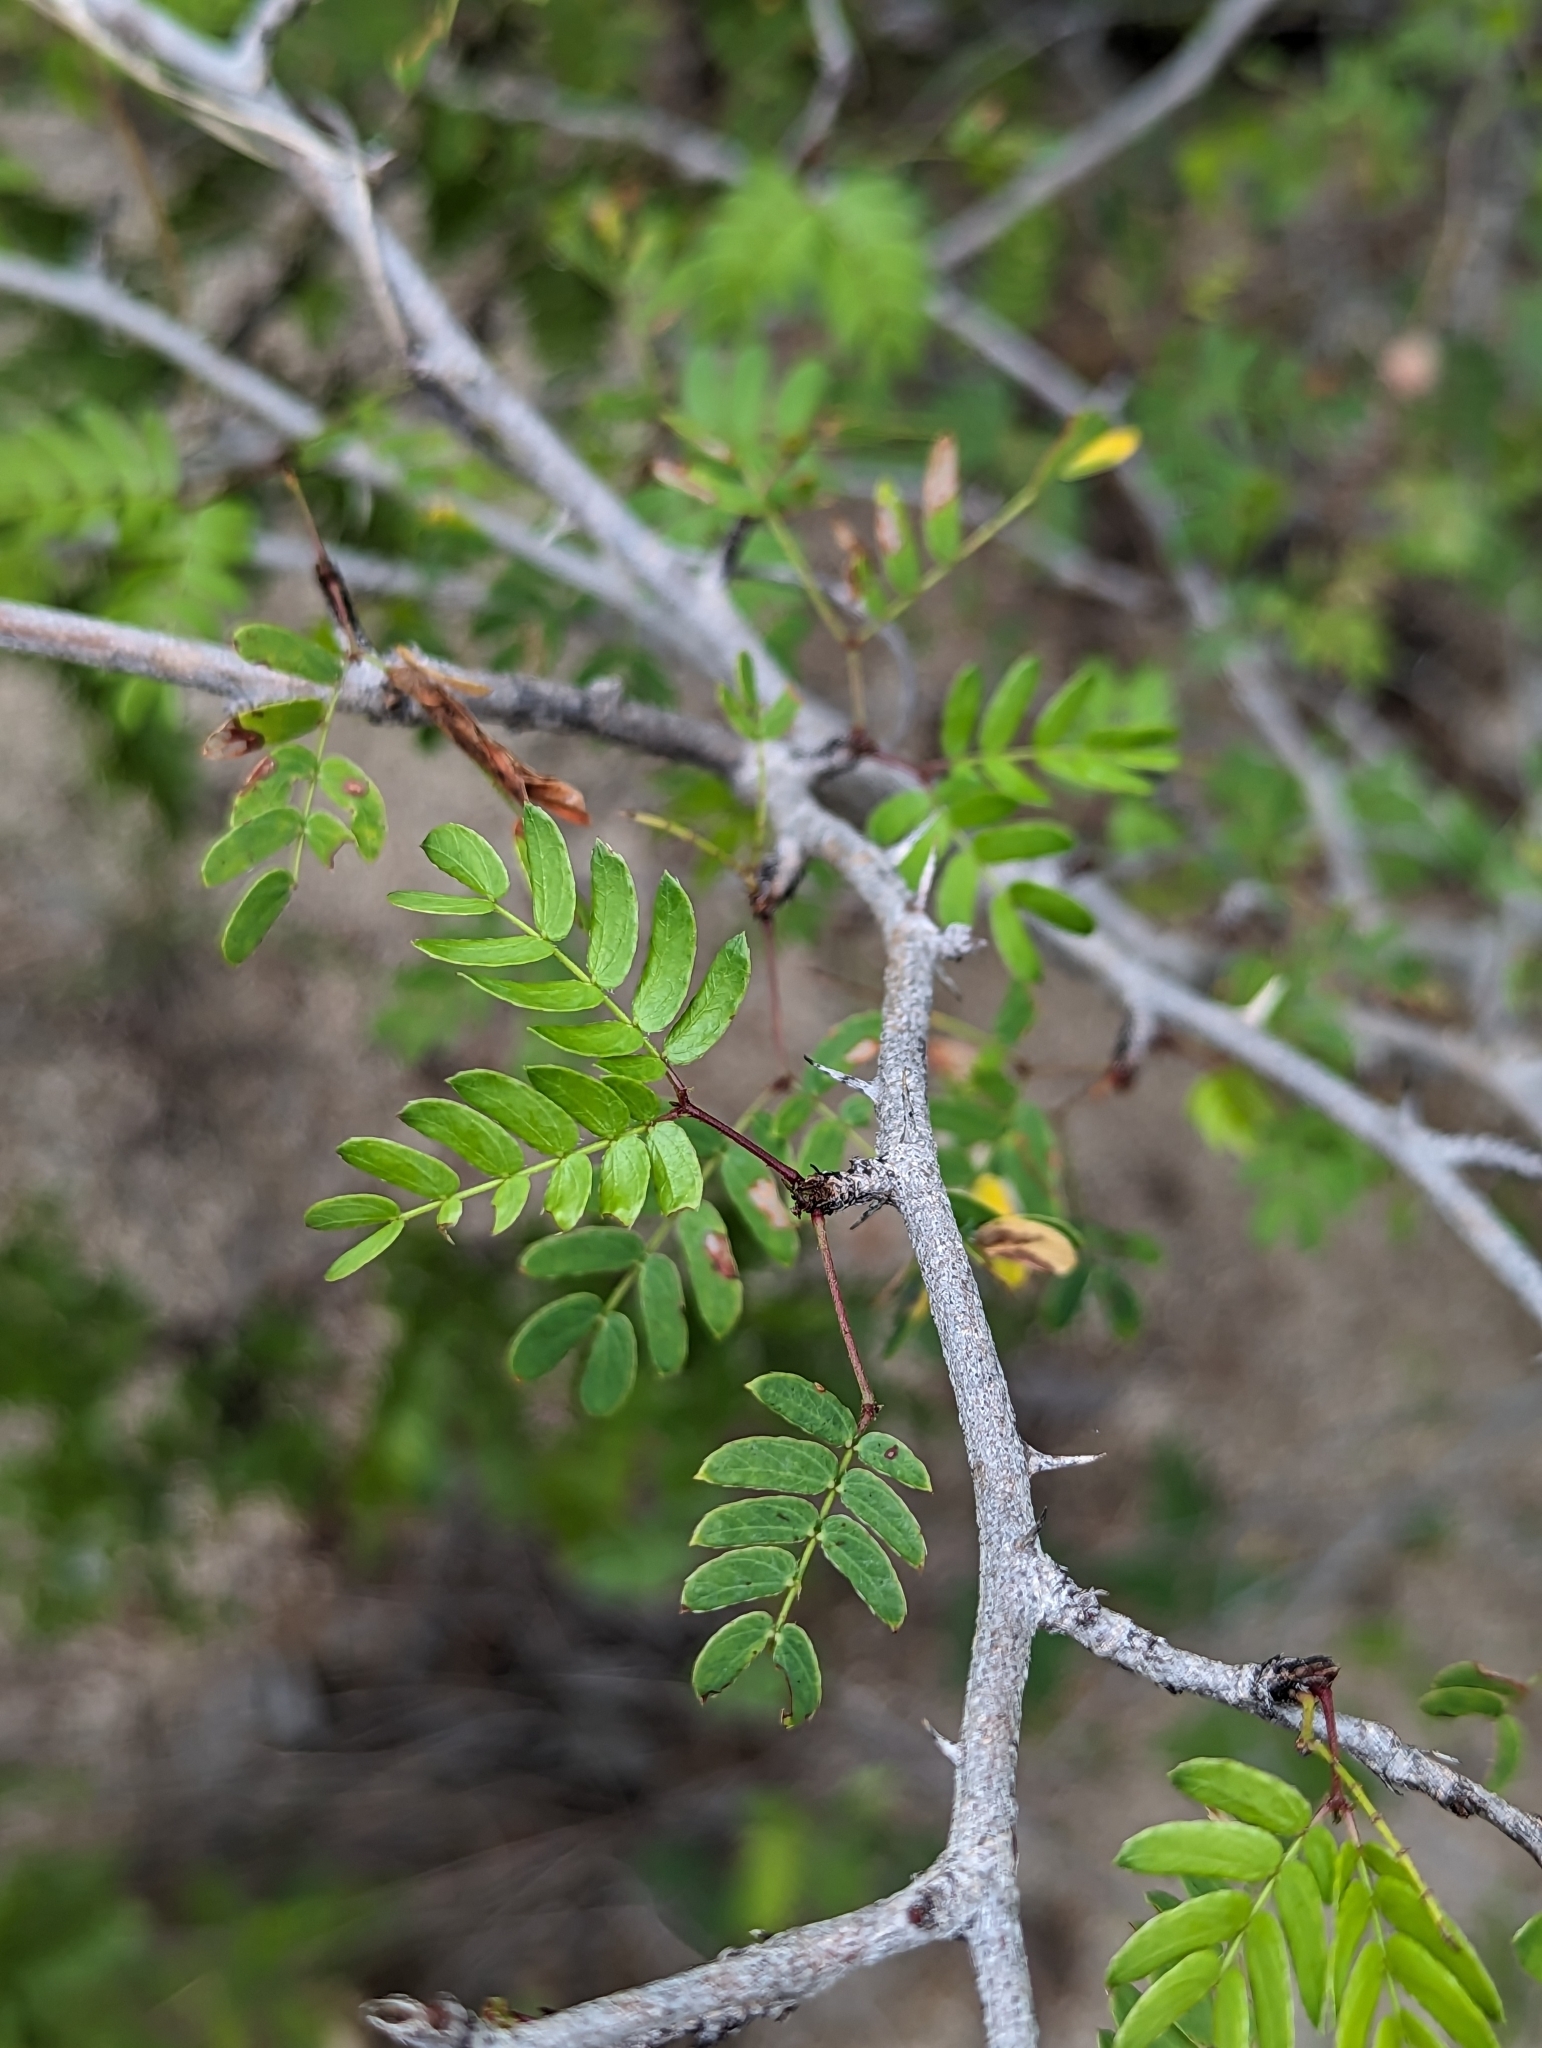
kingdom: Plantae
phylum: Tracheophyta
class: Magnoliopsida
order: Fabales
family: Fabaceae
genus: Mimosa
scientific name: Mimosa tricephala
